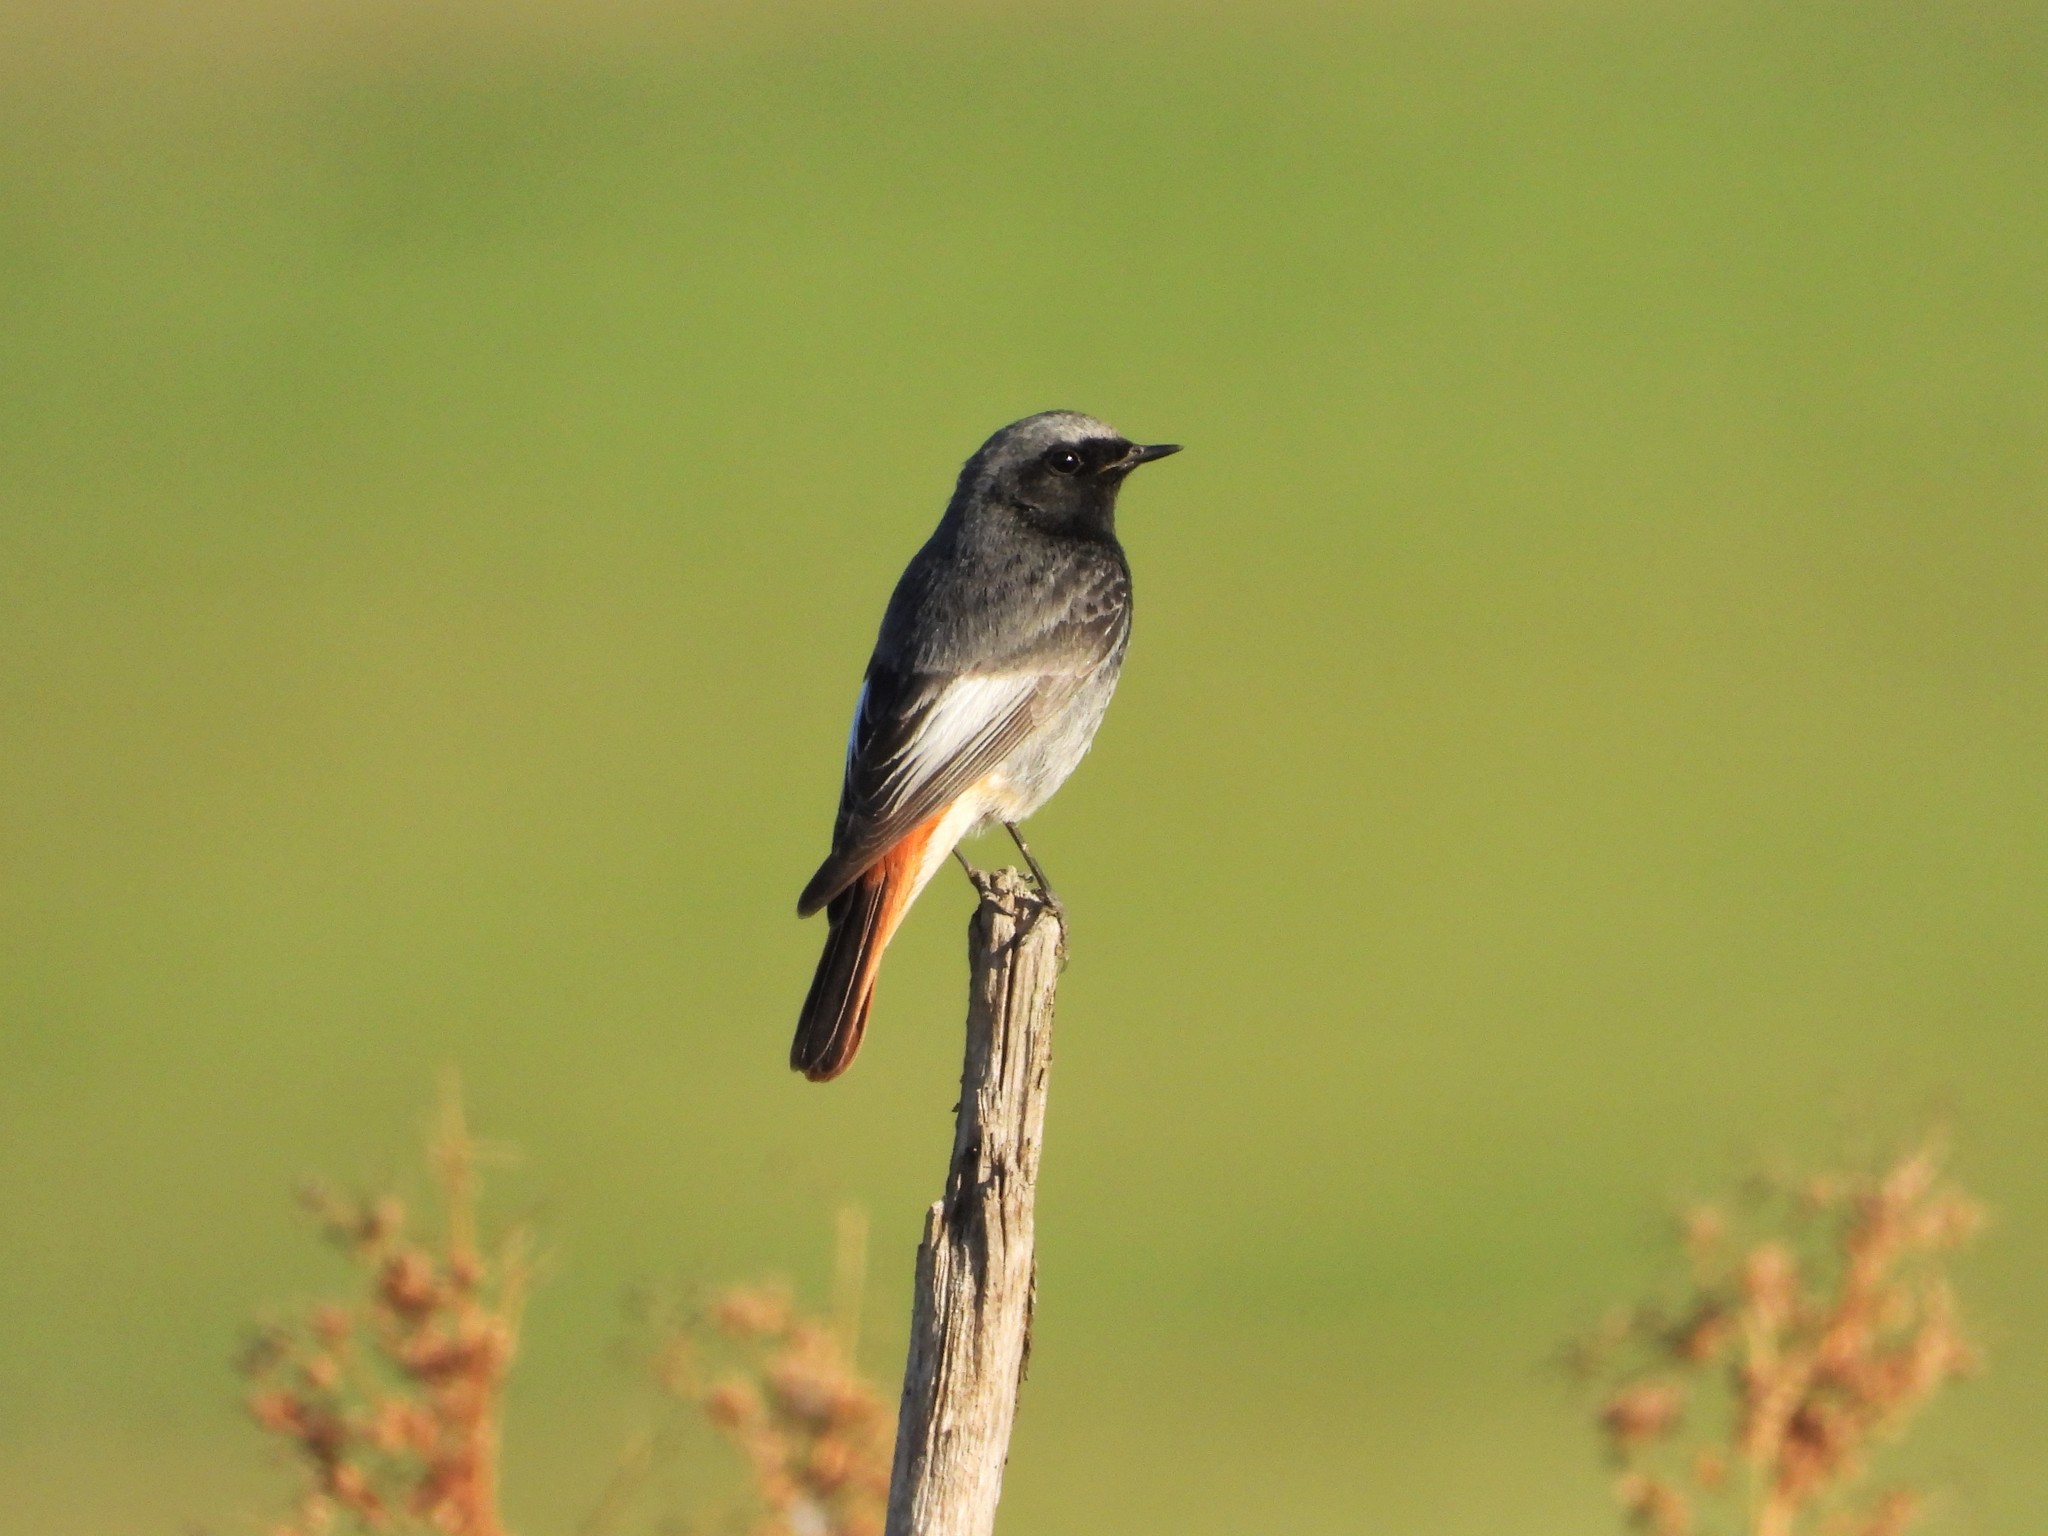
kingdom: Animalia
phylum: Chordata
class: Aves
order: Passeriformes
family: Muscicapidae
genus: Phoenicurus
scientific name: Phoenicurus ochruros
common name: Black redstart
